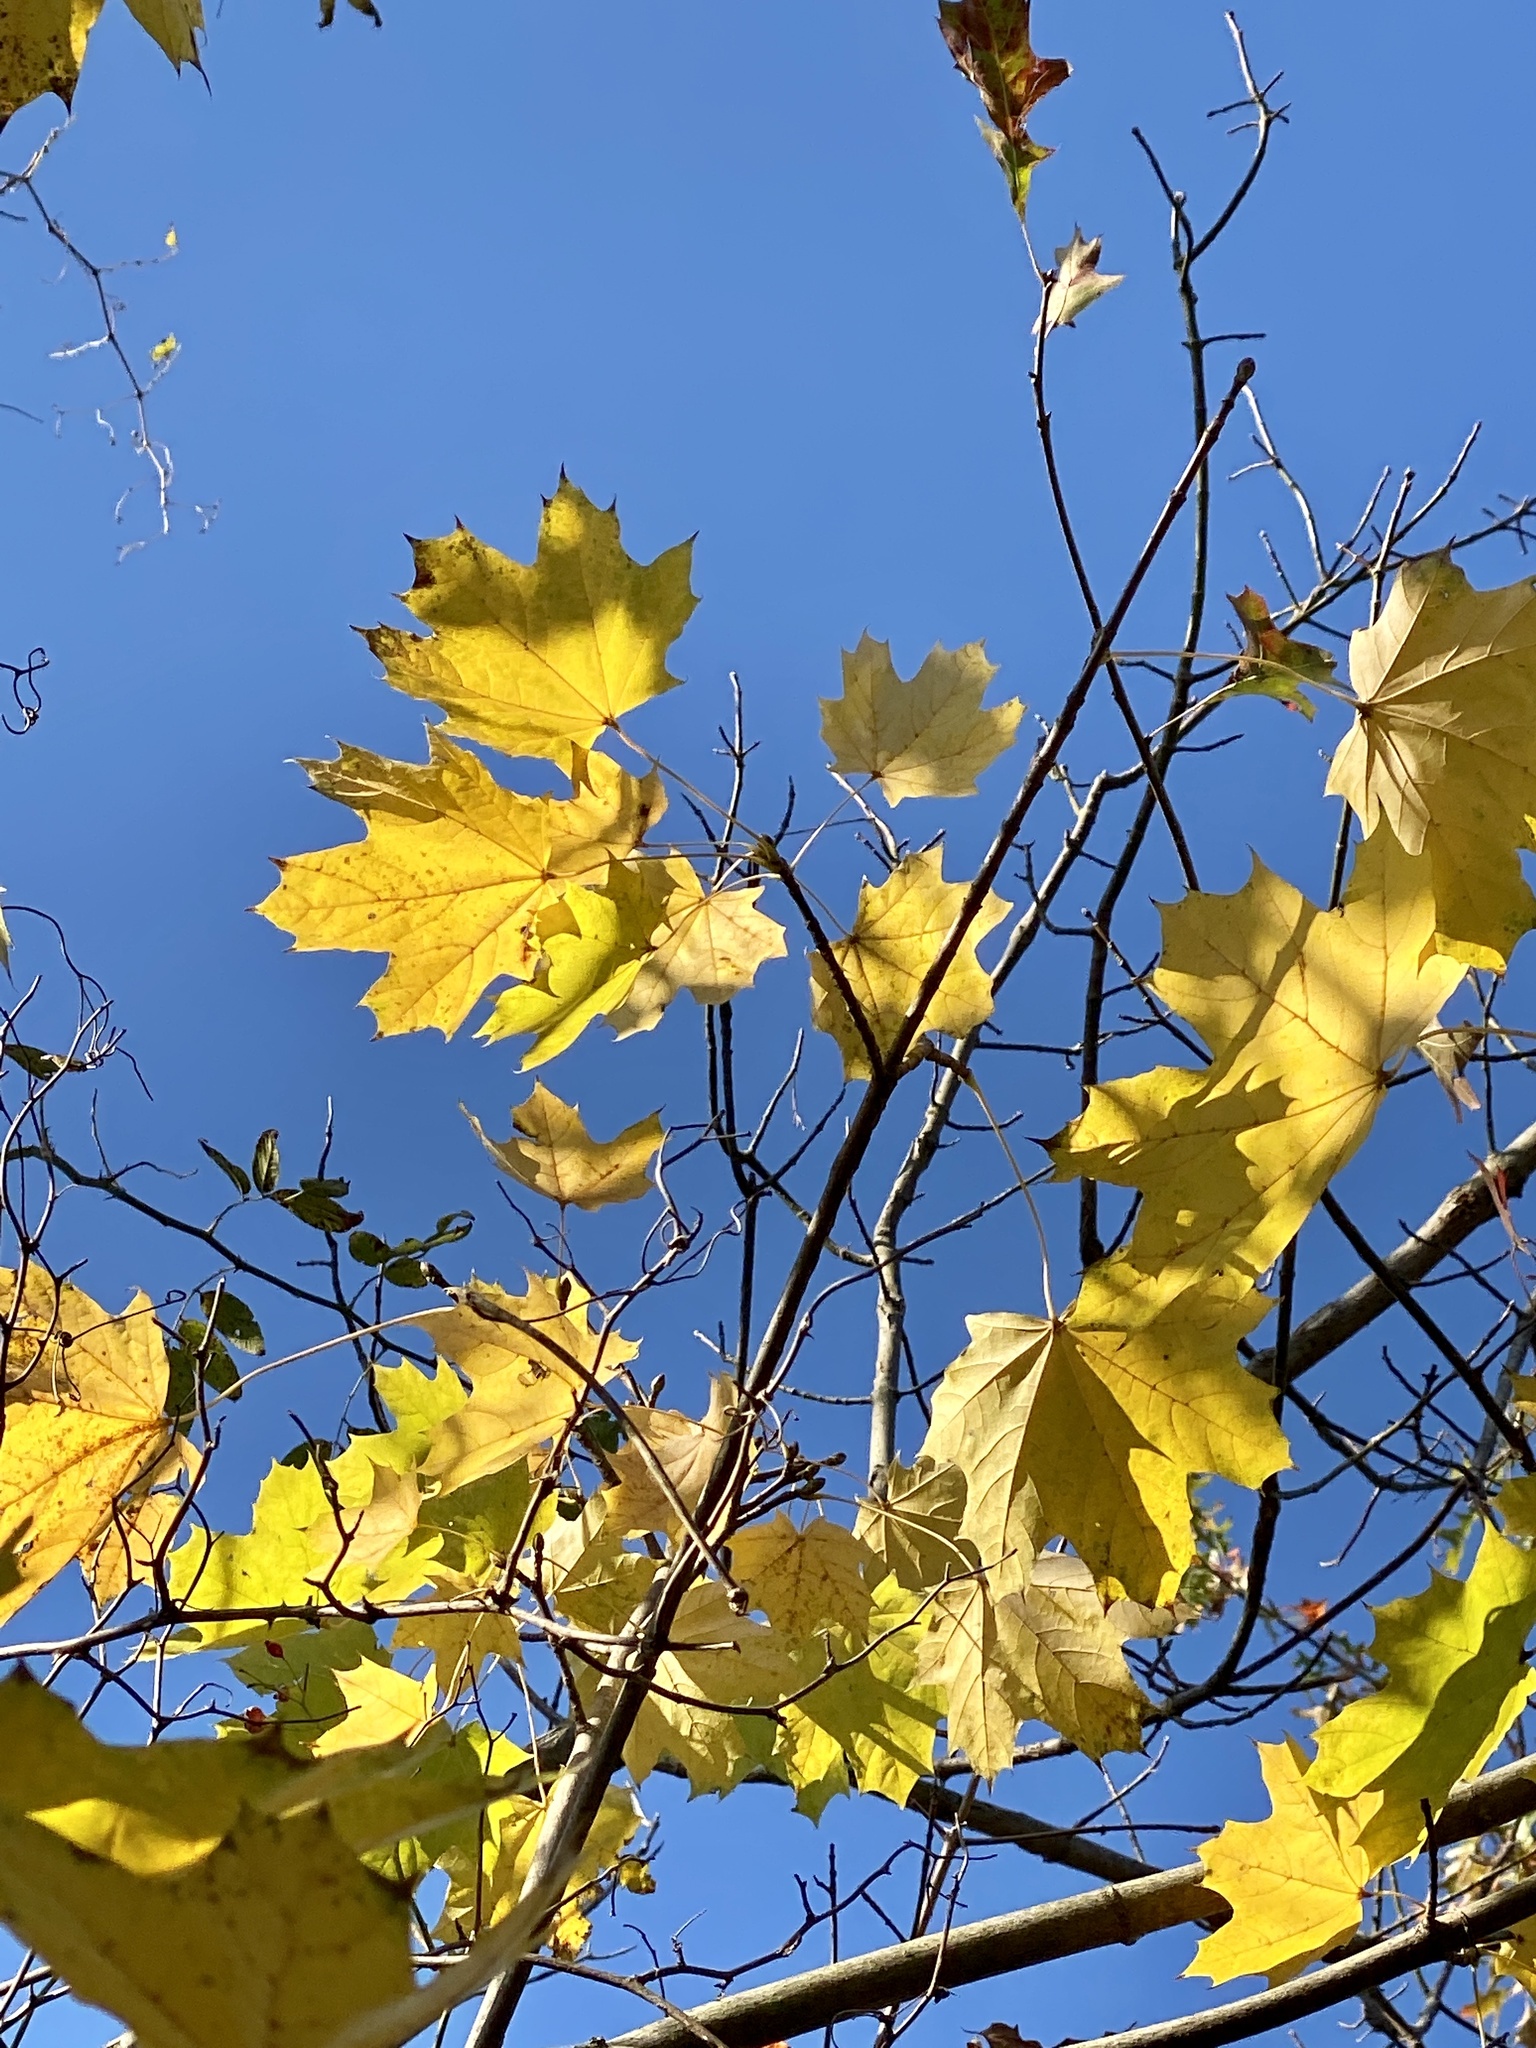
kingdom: Plantae
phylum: Tracheophyta
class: Magnoliopsida
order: Sapindales
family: Sapindaceae
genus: Acer
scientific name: Acer platanoides
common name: Norway maple
